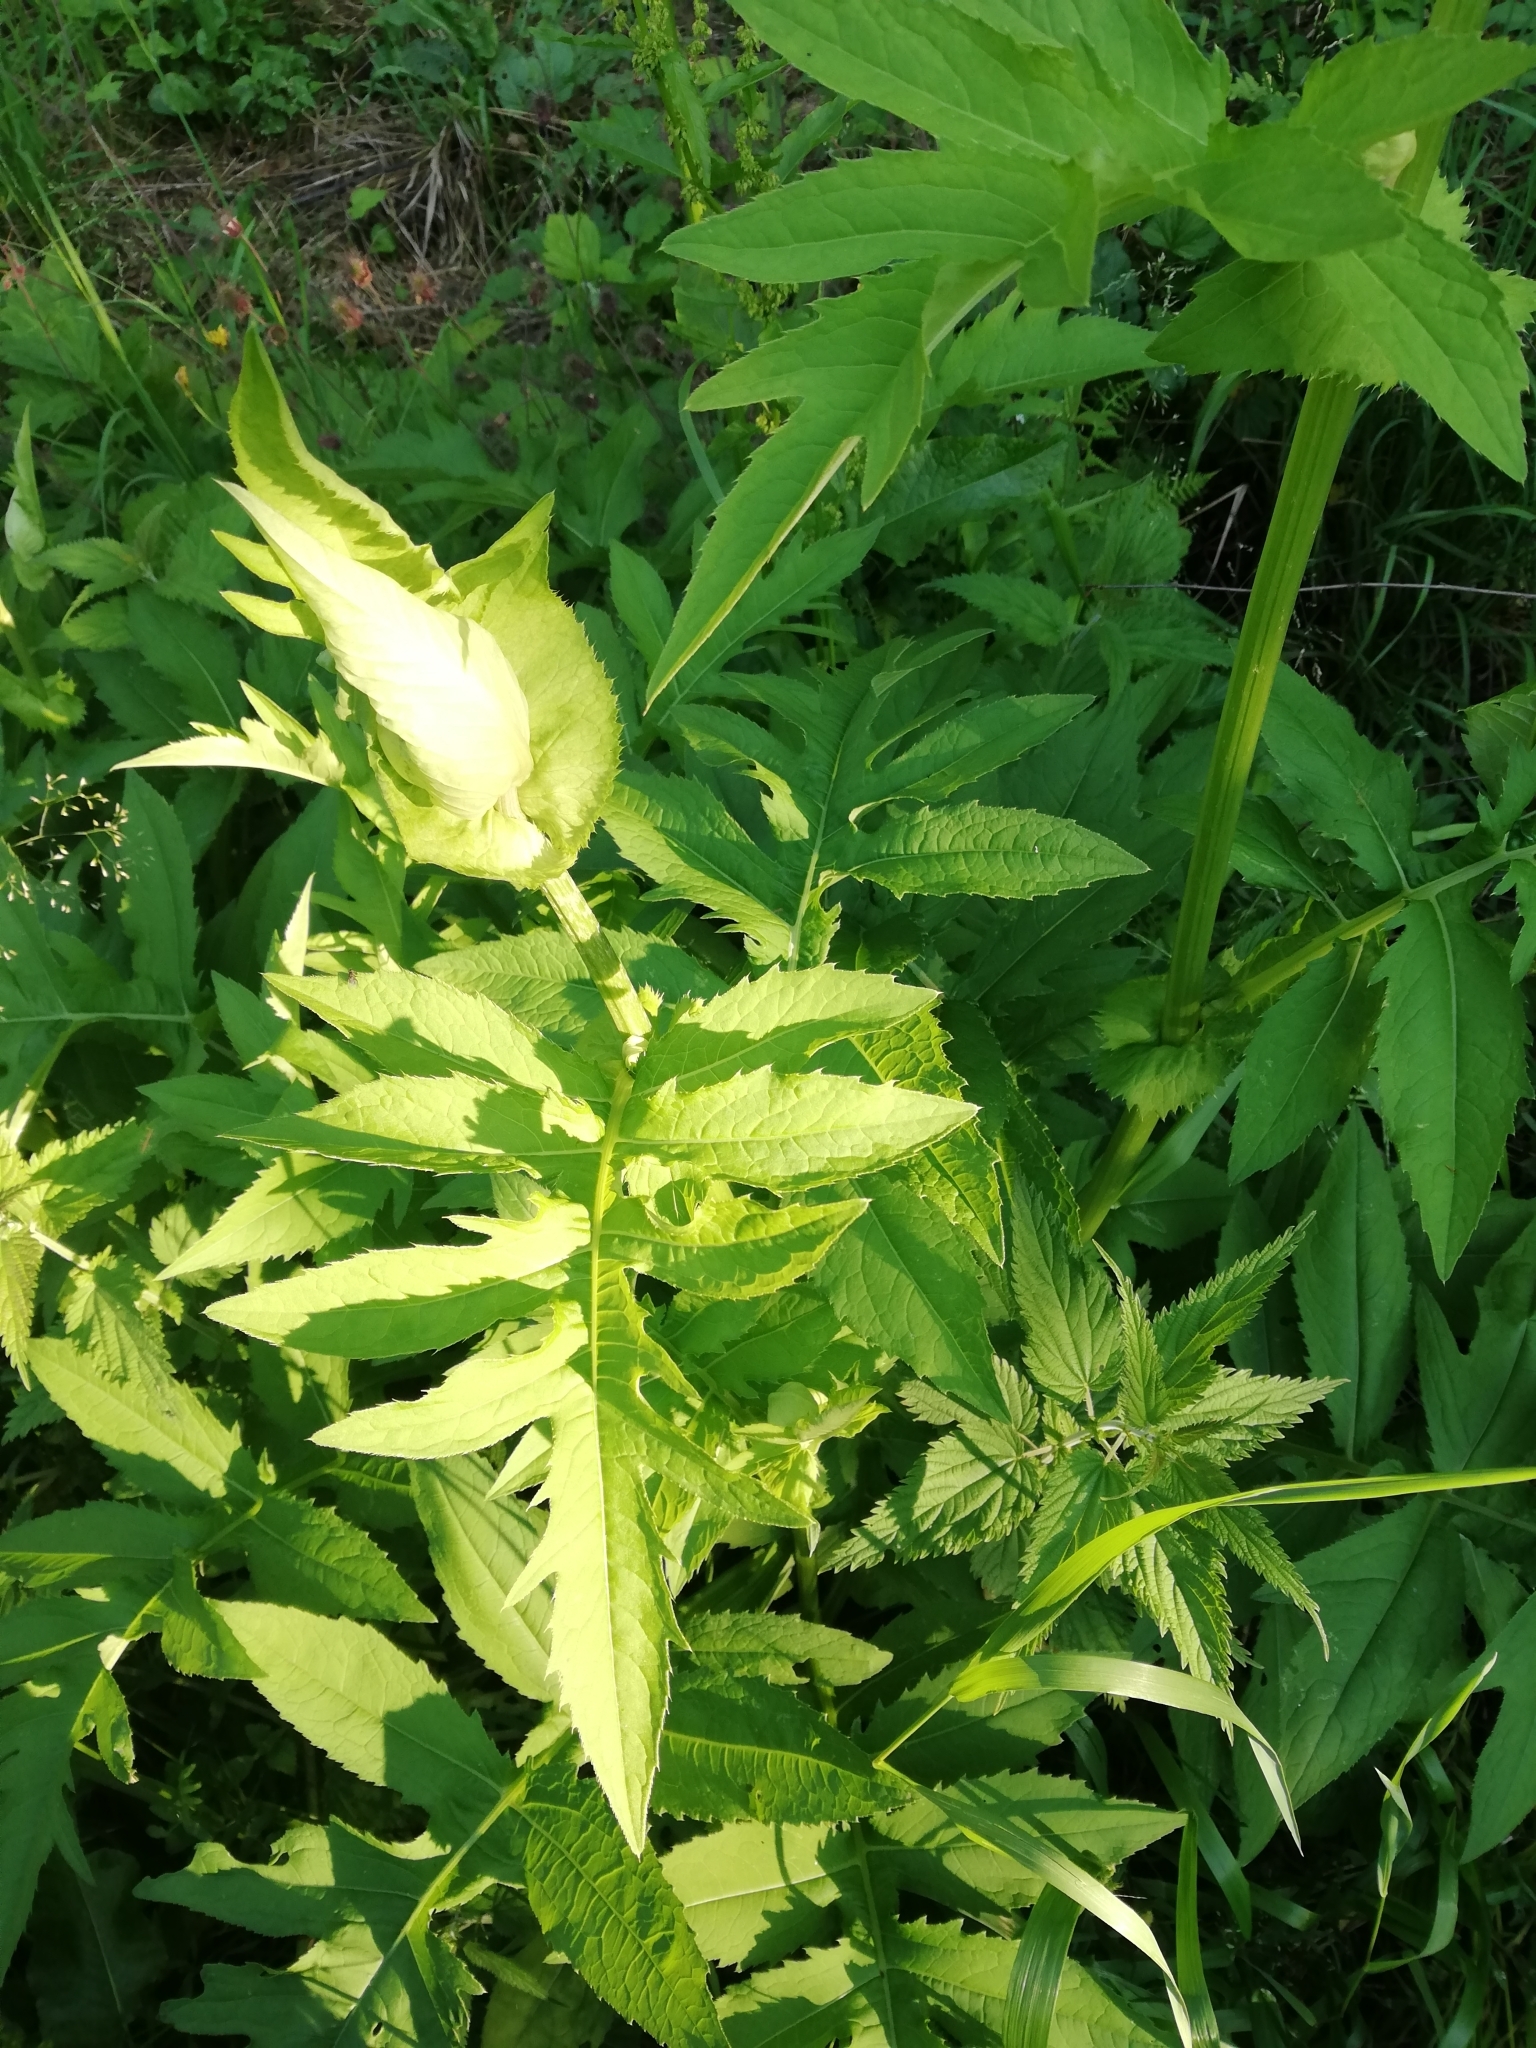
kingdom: Plantae
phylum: Tracheophyta
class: Magnoliopsida
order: Asterales
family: Asteraceae
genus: Cirsium
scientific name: Cirsium oleraceum
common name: Cabbage thistle
